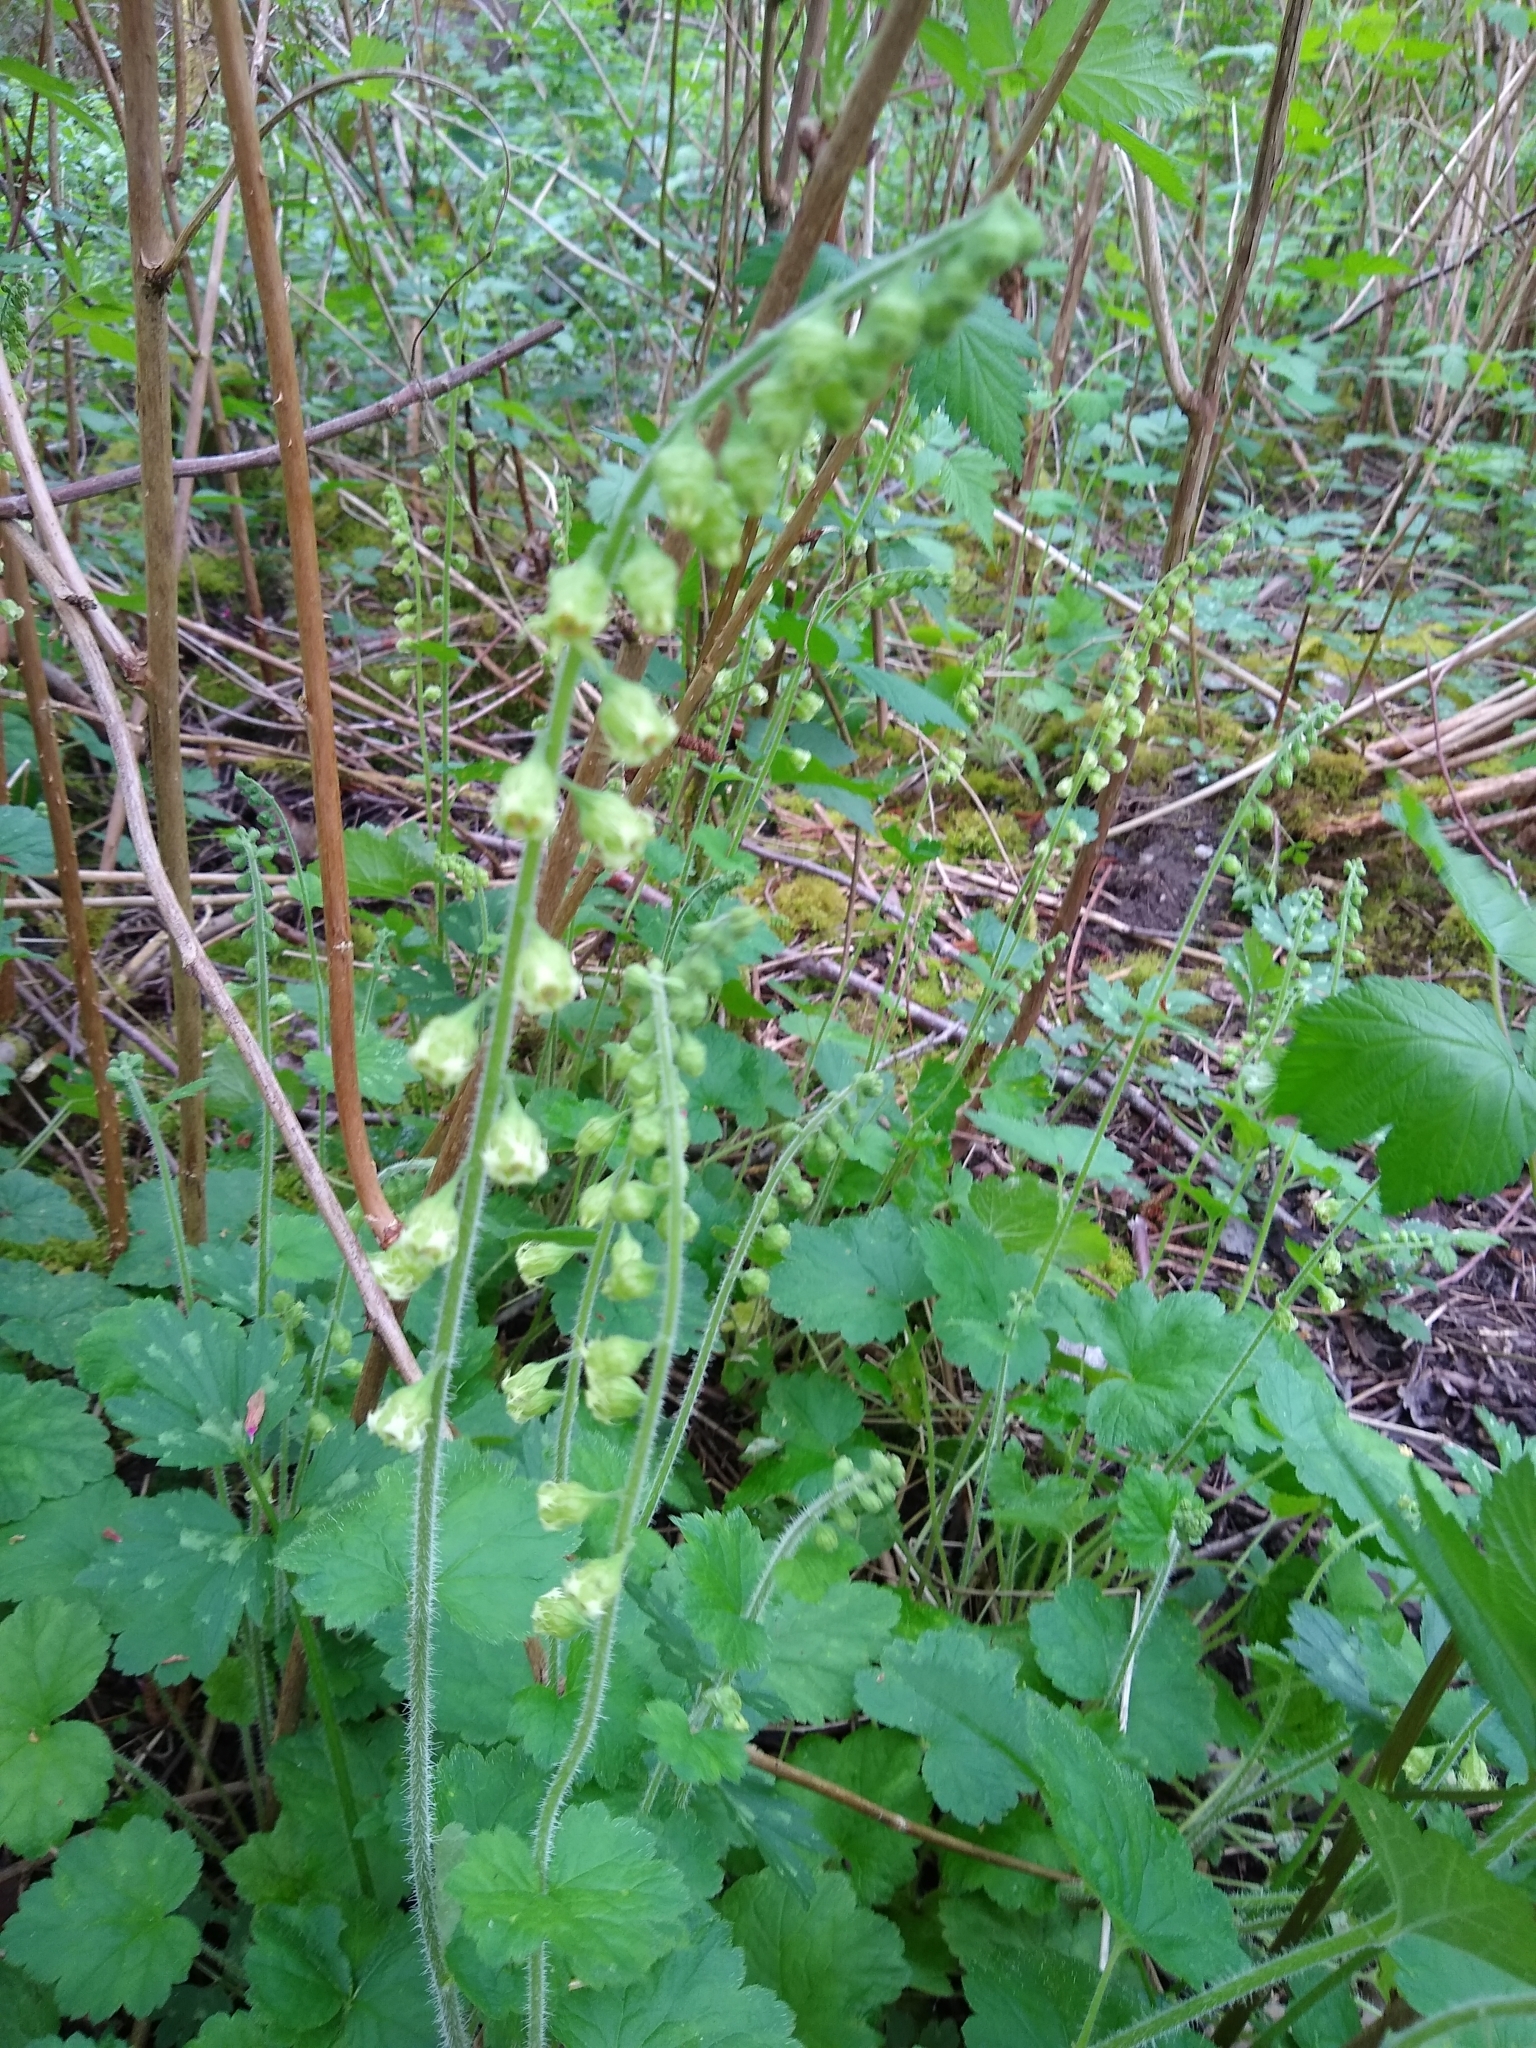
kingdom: Plantae
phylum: Tracheophyta
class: Magnoliopsida
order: Saxifragales
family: Saxifragaceae
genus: Tellima
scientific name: Tellima grandiflora
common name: Fringecups
